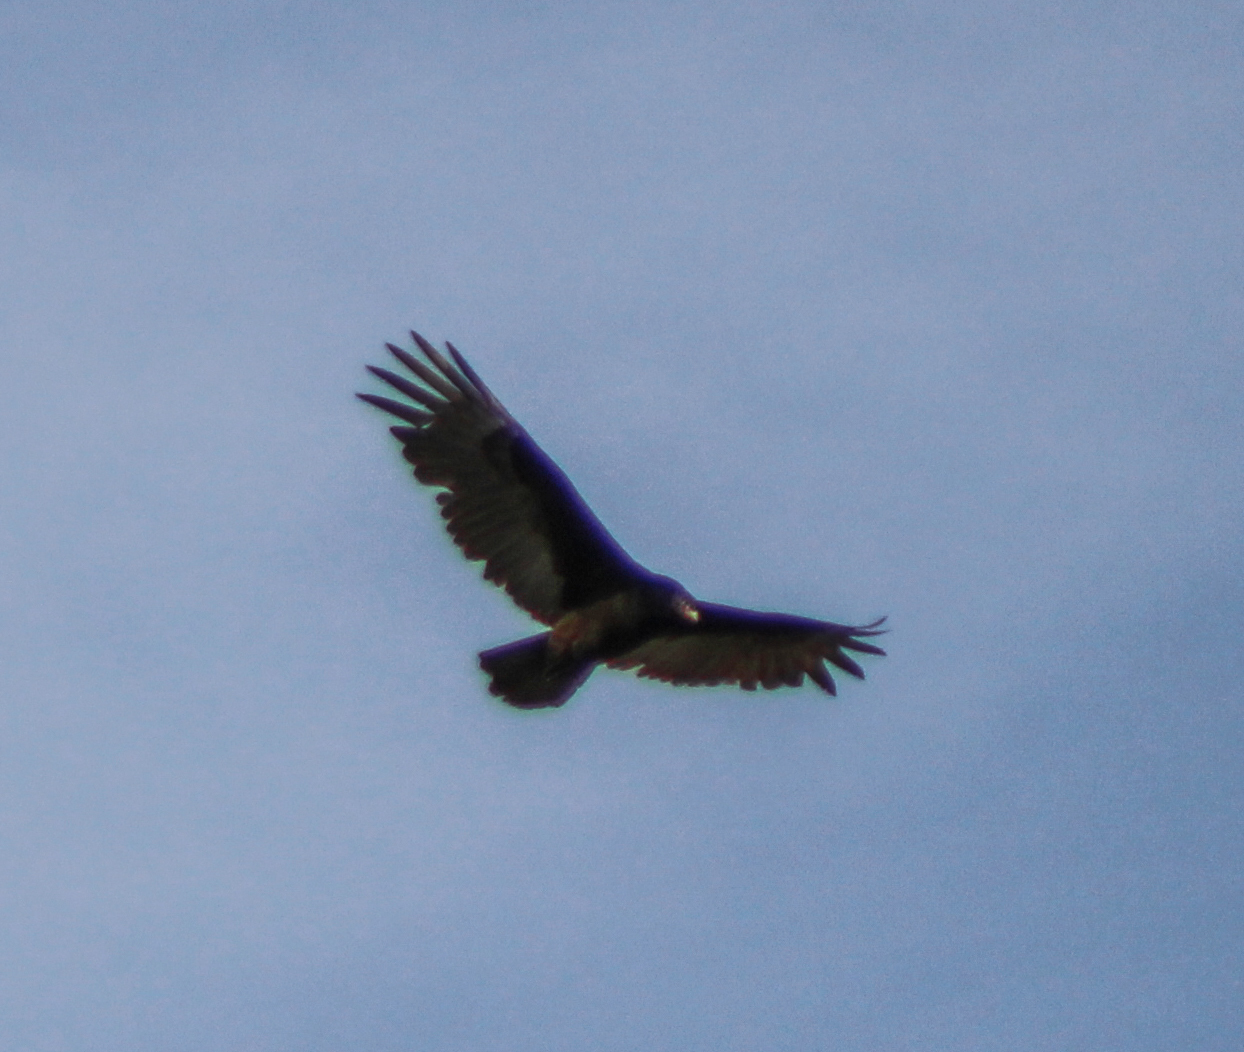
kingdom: Animalia
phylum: Chordata
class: Aves
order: Accipitriformes
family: Cathartidae
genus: Cathartes
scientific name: Cathartes aura
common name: Turkey vulture
